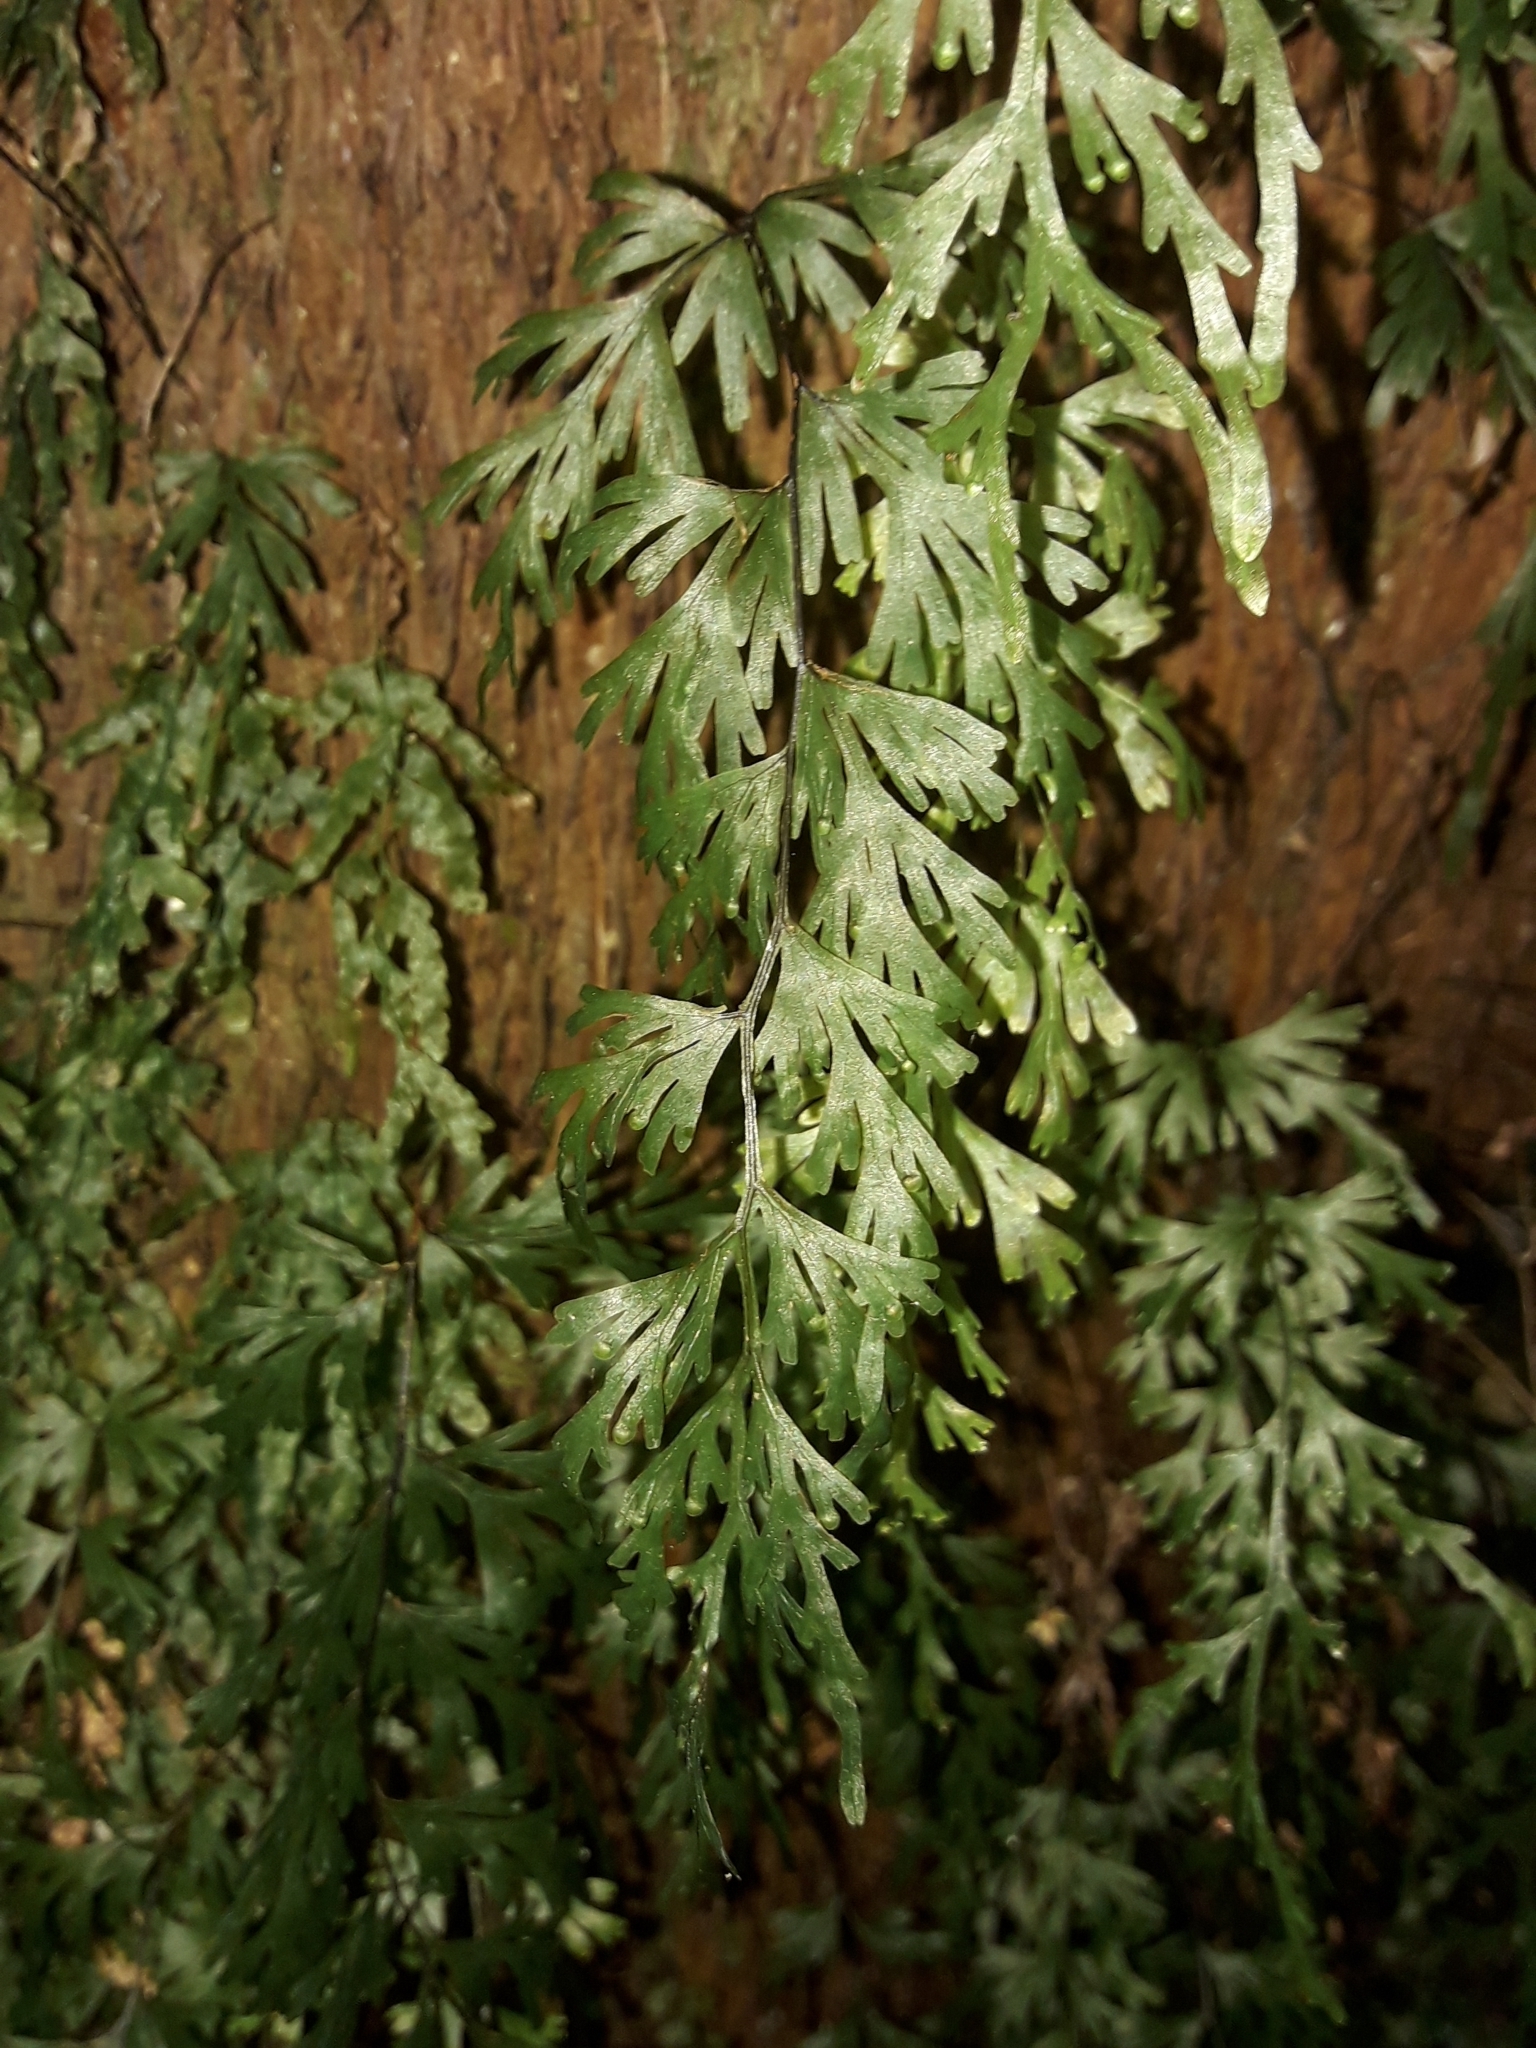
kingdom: Plantae
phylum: Tracheophyta
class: Polypodiopsida
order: Hymenophyllales
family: Hymenophyllaceae
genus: Hymenophyllum
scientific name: Hymenophyllum flabellatum
